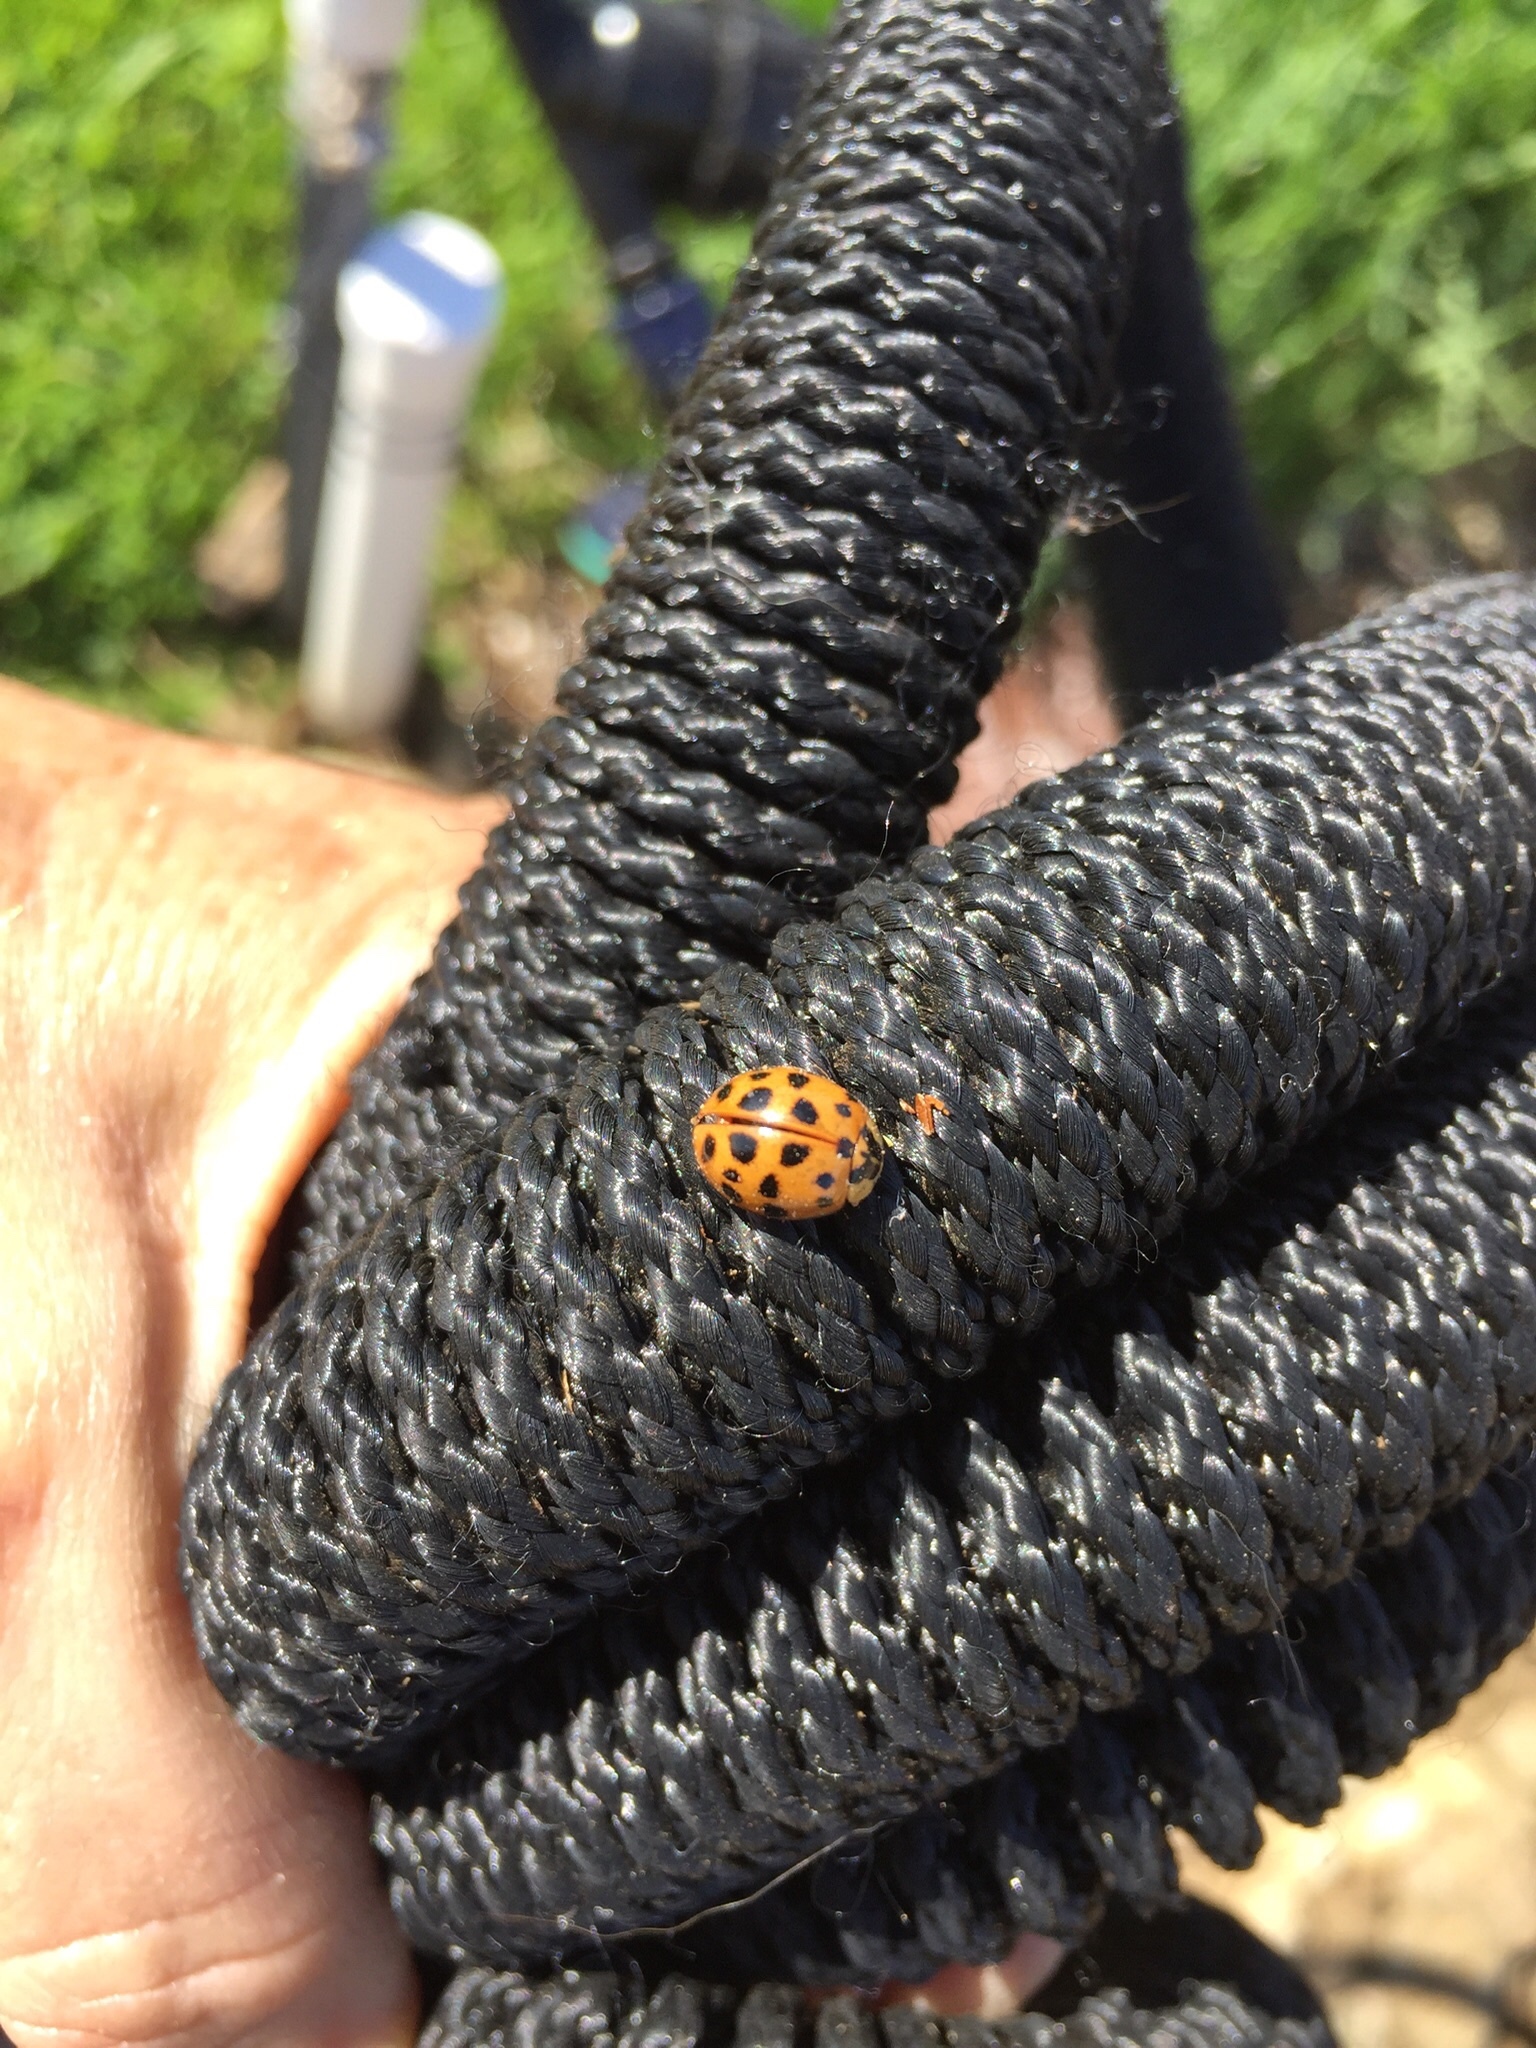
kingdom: Animalia
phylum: Arthropoda
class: Insecta
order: Coleoptera
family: Coccinellidae
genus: Harmonia
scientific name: Harmonia axyridis
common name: Harlequin ladybird
